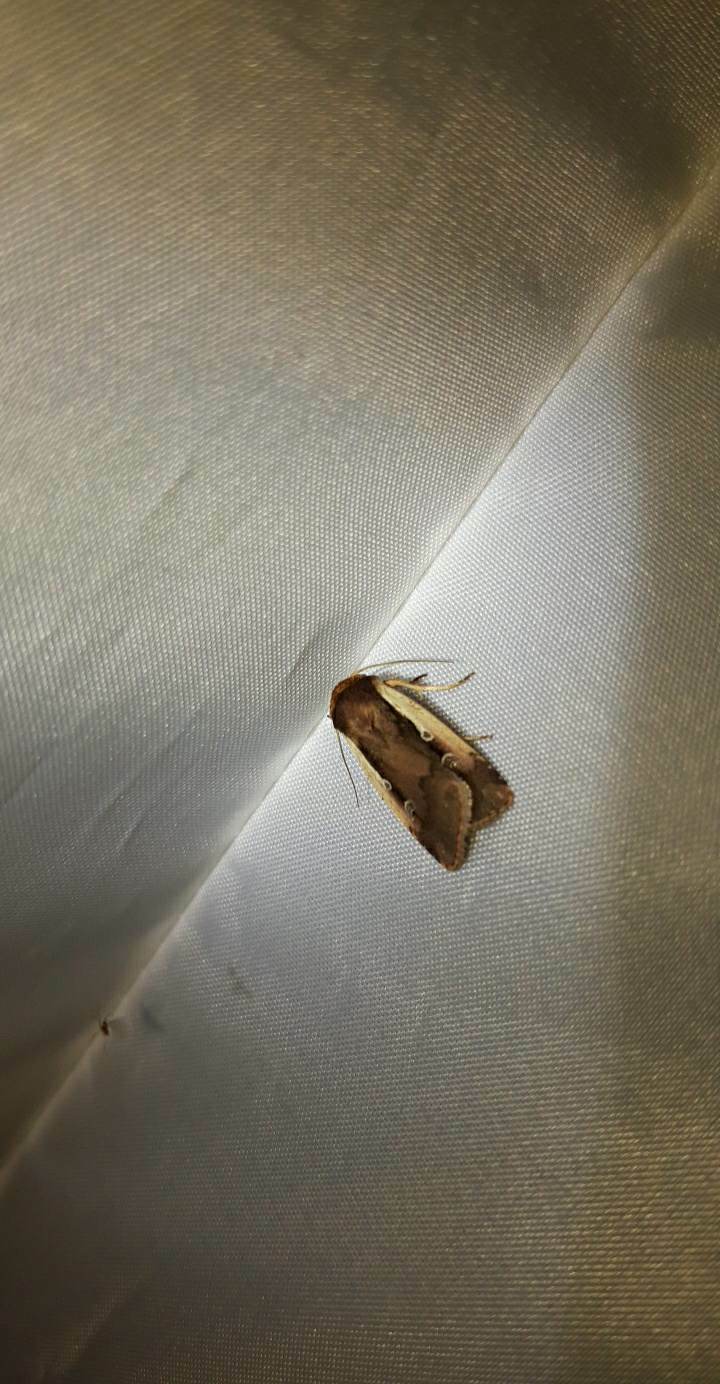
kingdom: Animalia
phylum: Arthropoda
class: Insecta
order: Lepidoptera
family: Noctuidae
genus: Ochropleura
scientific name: Ochropleura plecta
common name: Flame shoulder
